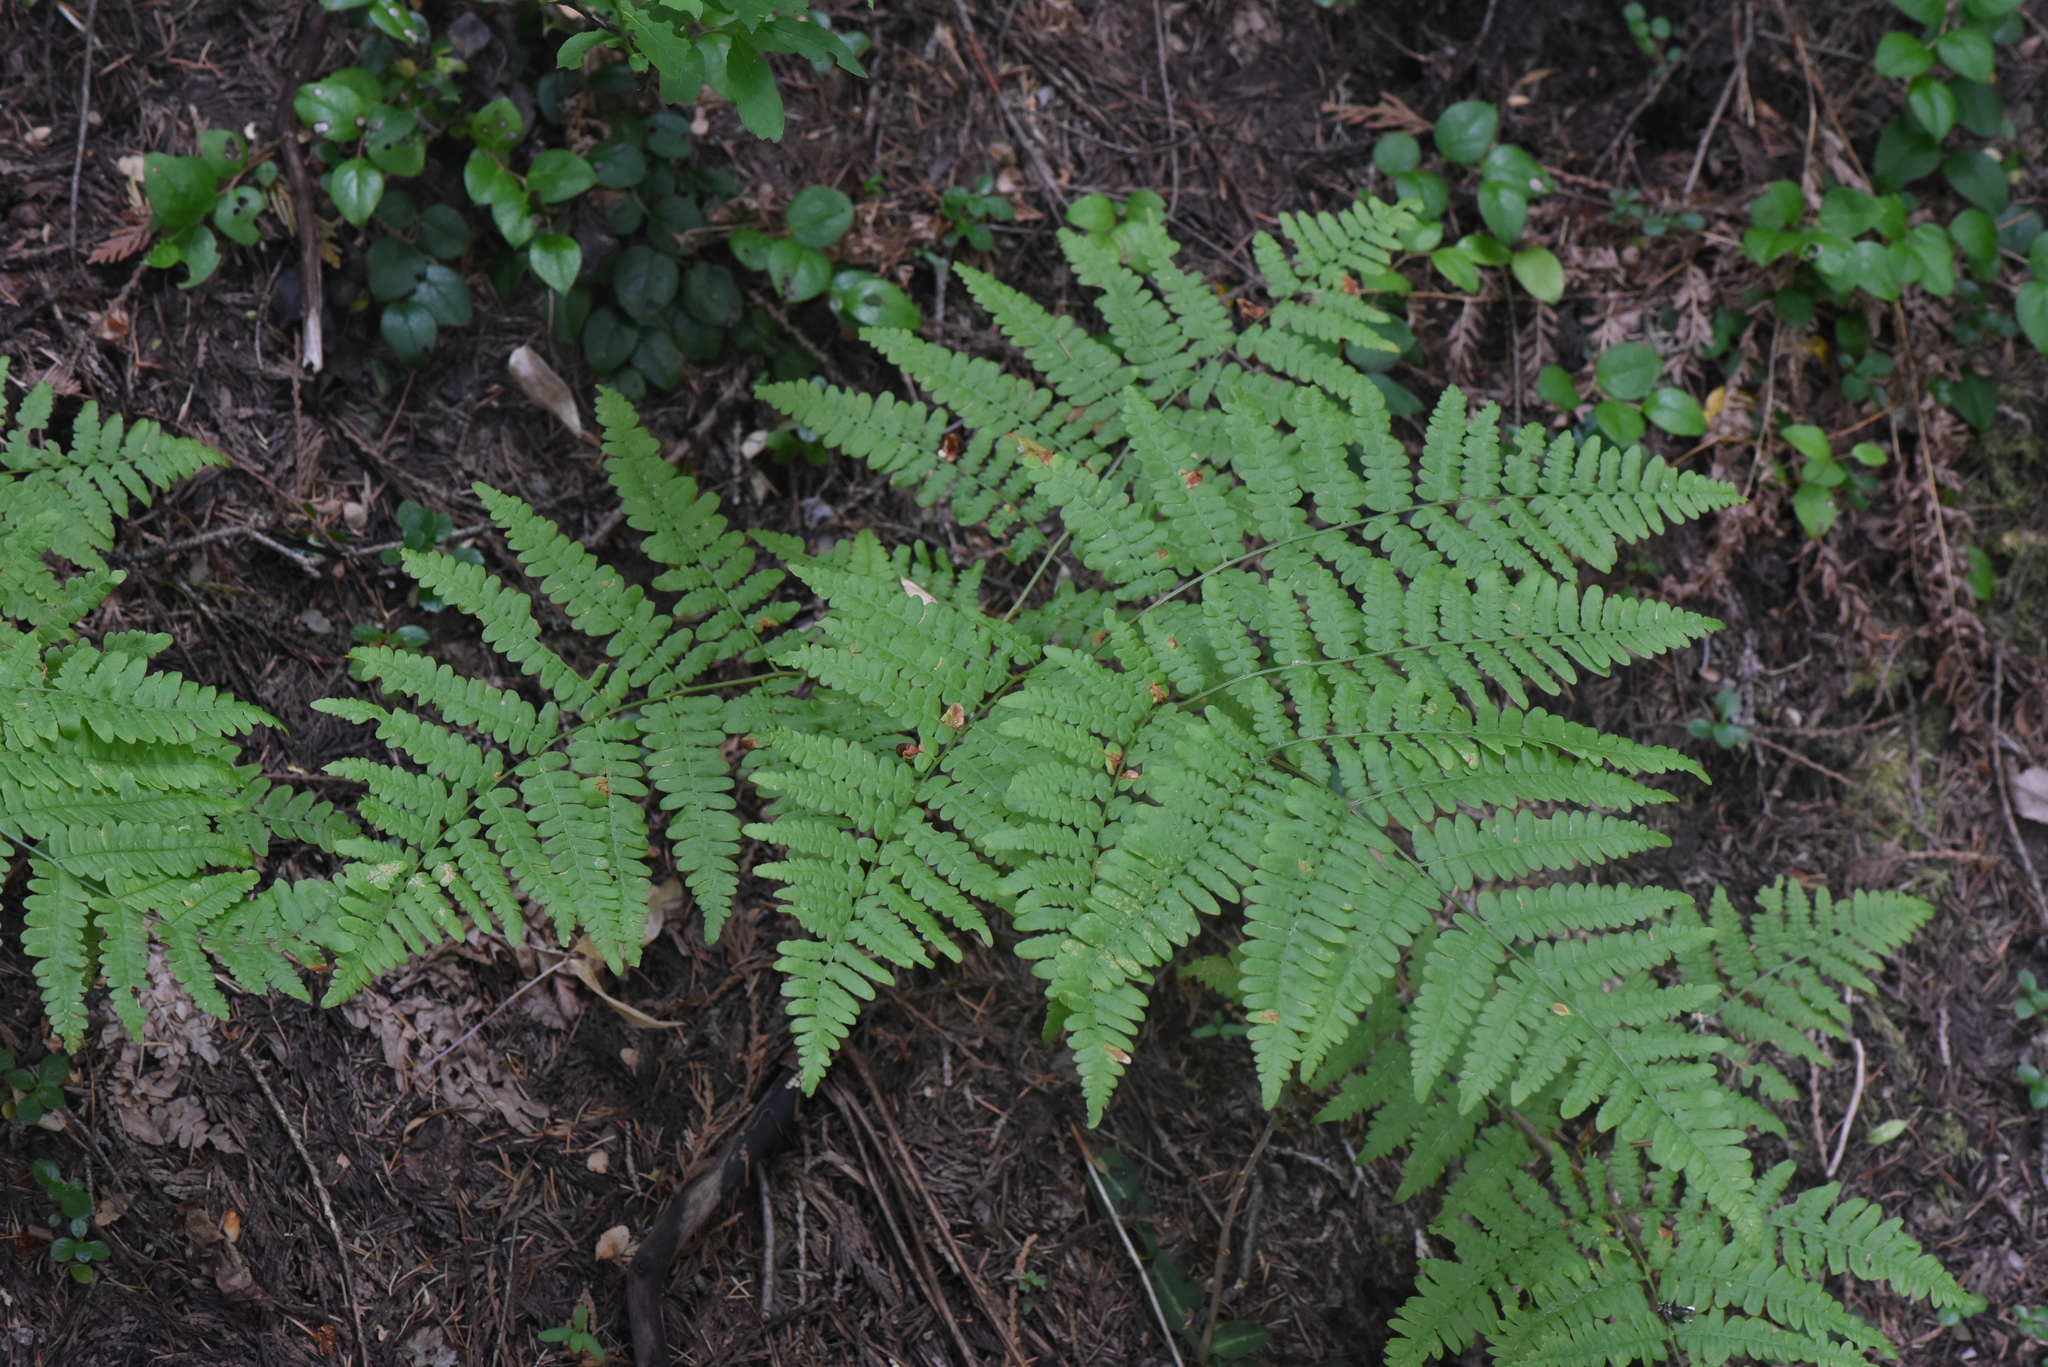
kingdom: Plantae
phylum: Tracheophyta
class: Polypodiopsida
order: Polypodiales
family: Dennstaedtiaceae
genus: Pteridium
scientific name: Pteridium aquilinum
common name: Bracken
